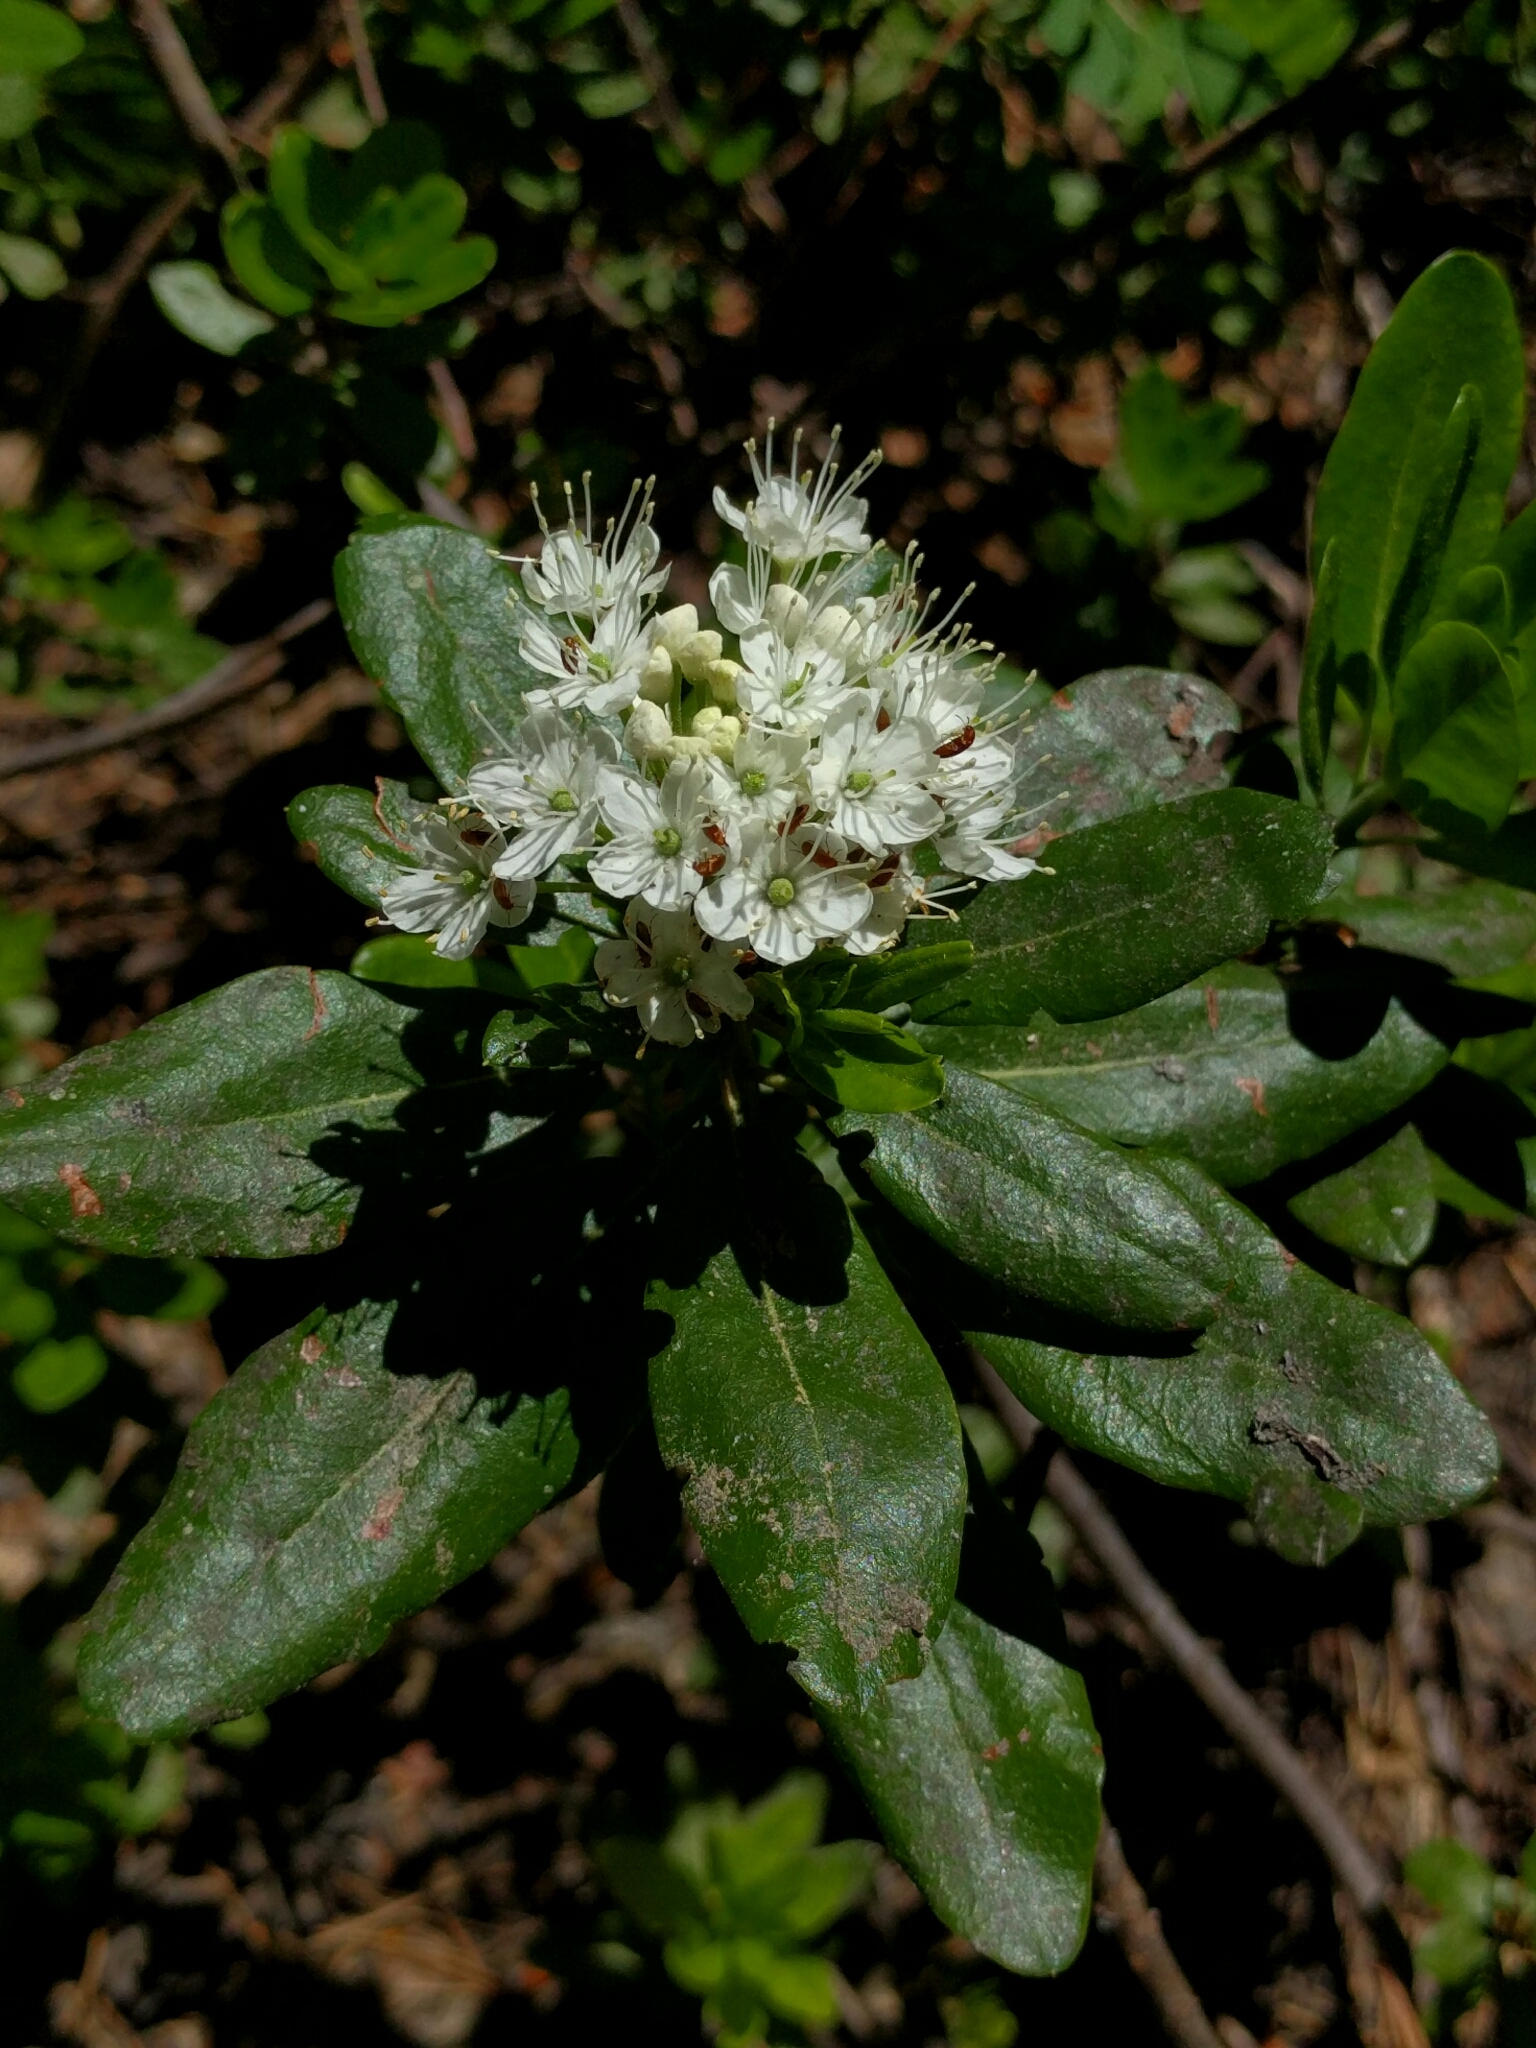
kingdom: Plantae
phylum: Tracheophyta
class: Magnoliopsida
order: Ericales
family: Ericaceae
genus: Rhododendron
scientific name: Rhododendron columbianum
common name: Western labrador tea
